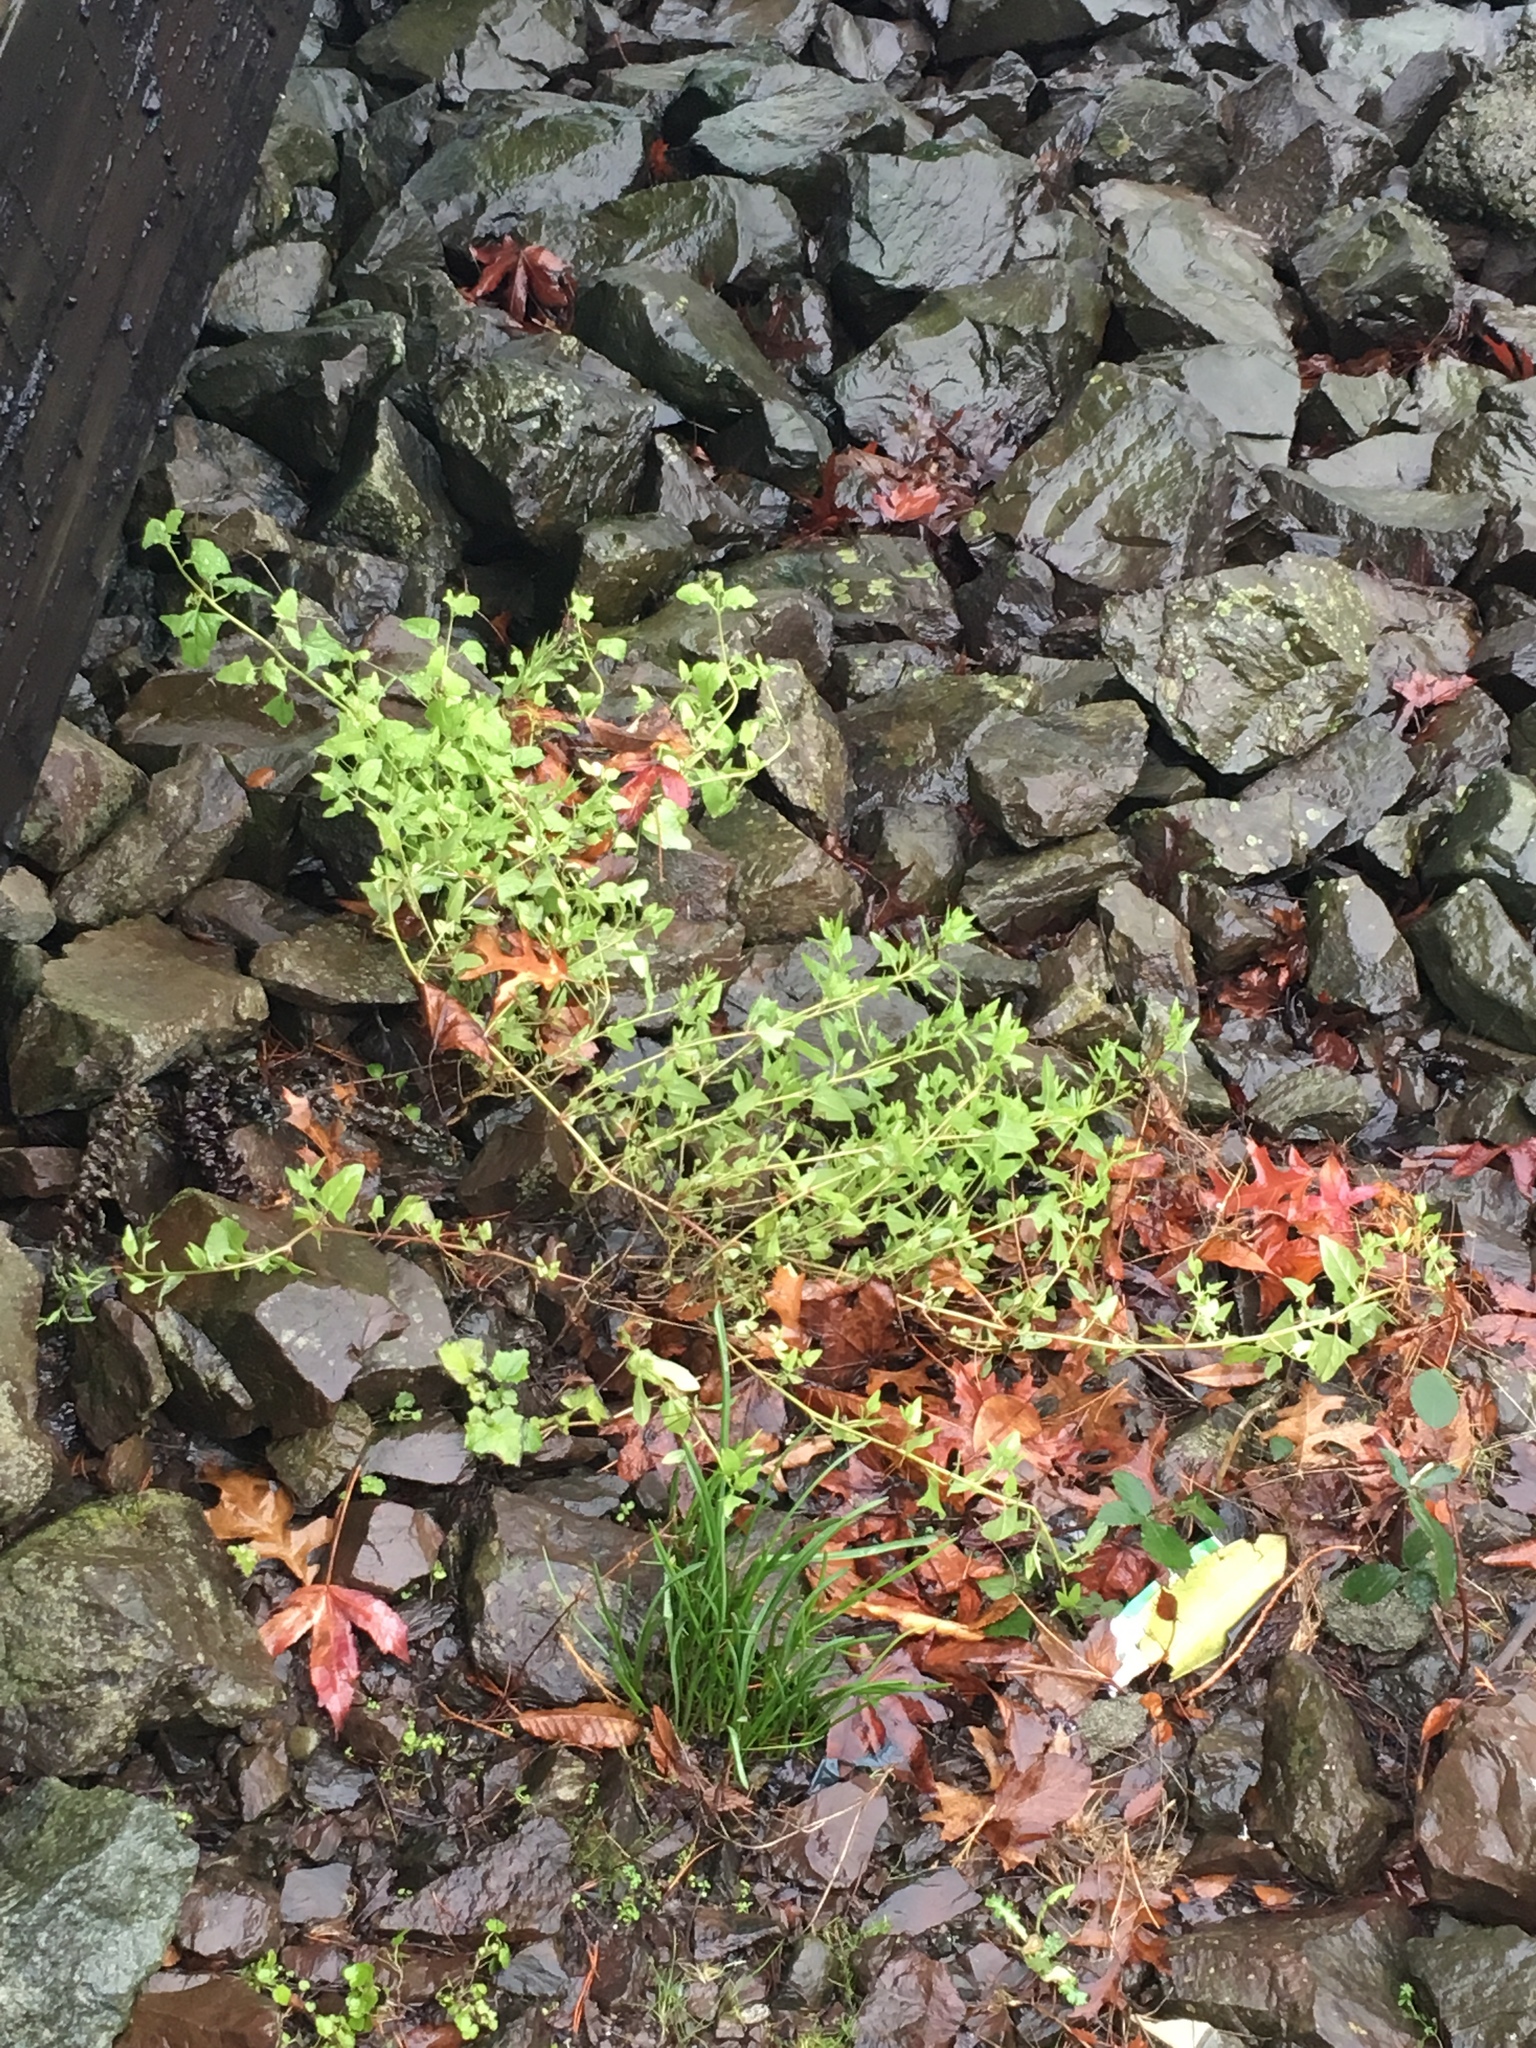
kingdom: Plantae
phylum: Tracheophyta
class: Magnoliopsida
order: Caryophyllales
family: Amaranthaceae
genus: Atriplex
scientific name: Atriplex prostrata
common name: Spear-leaved orache
